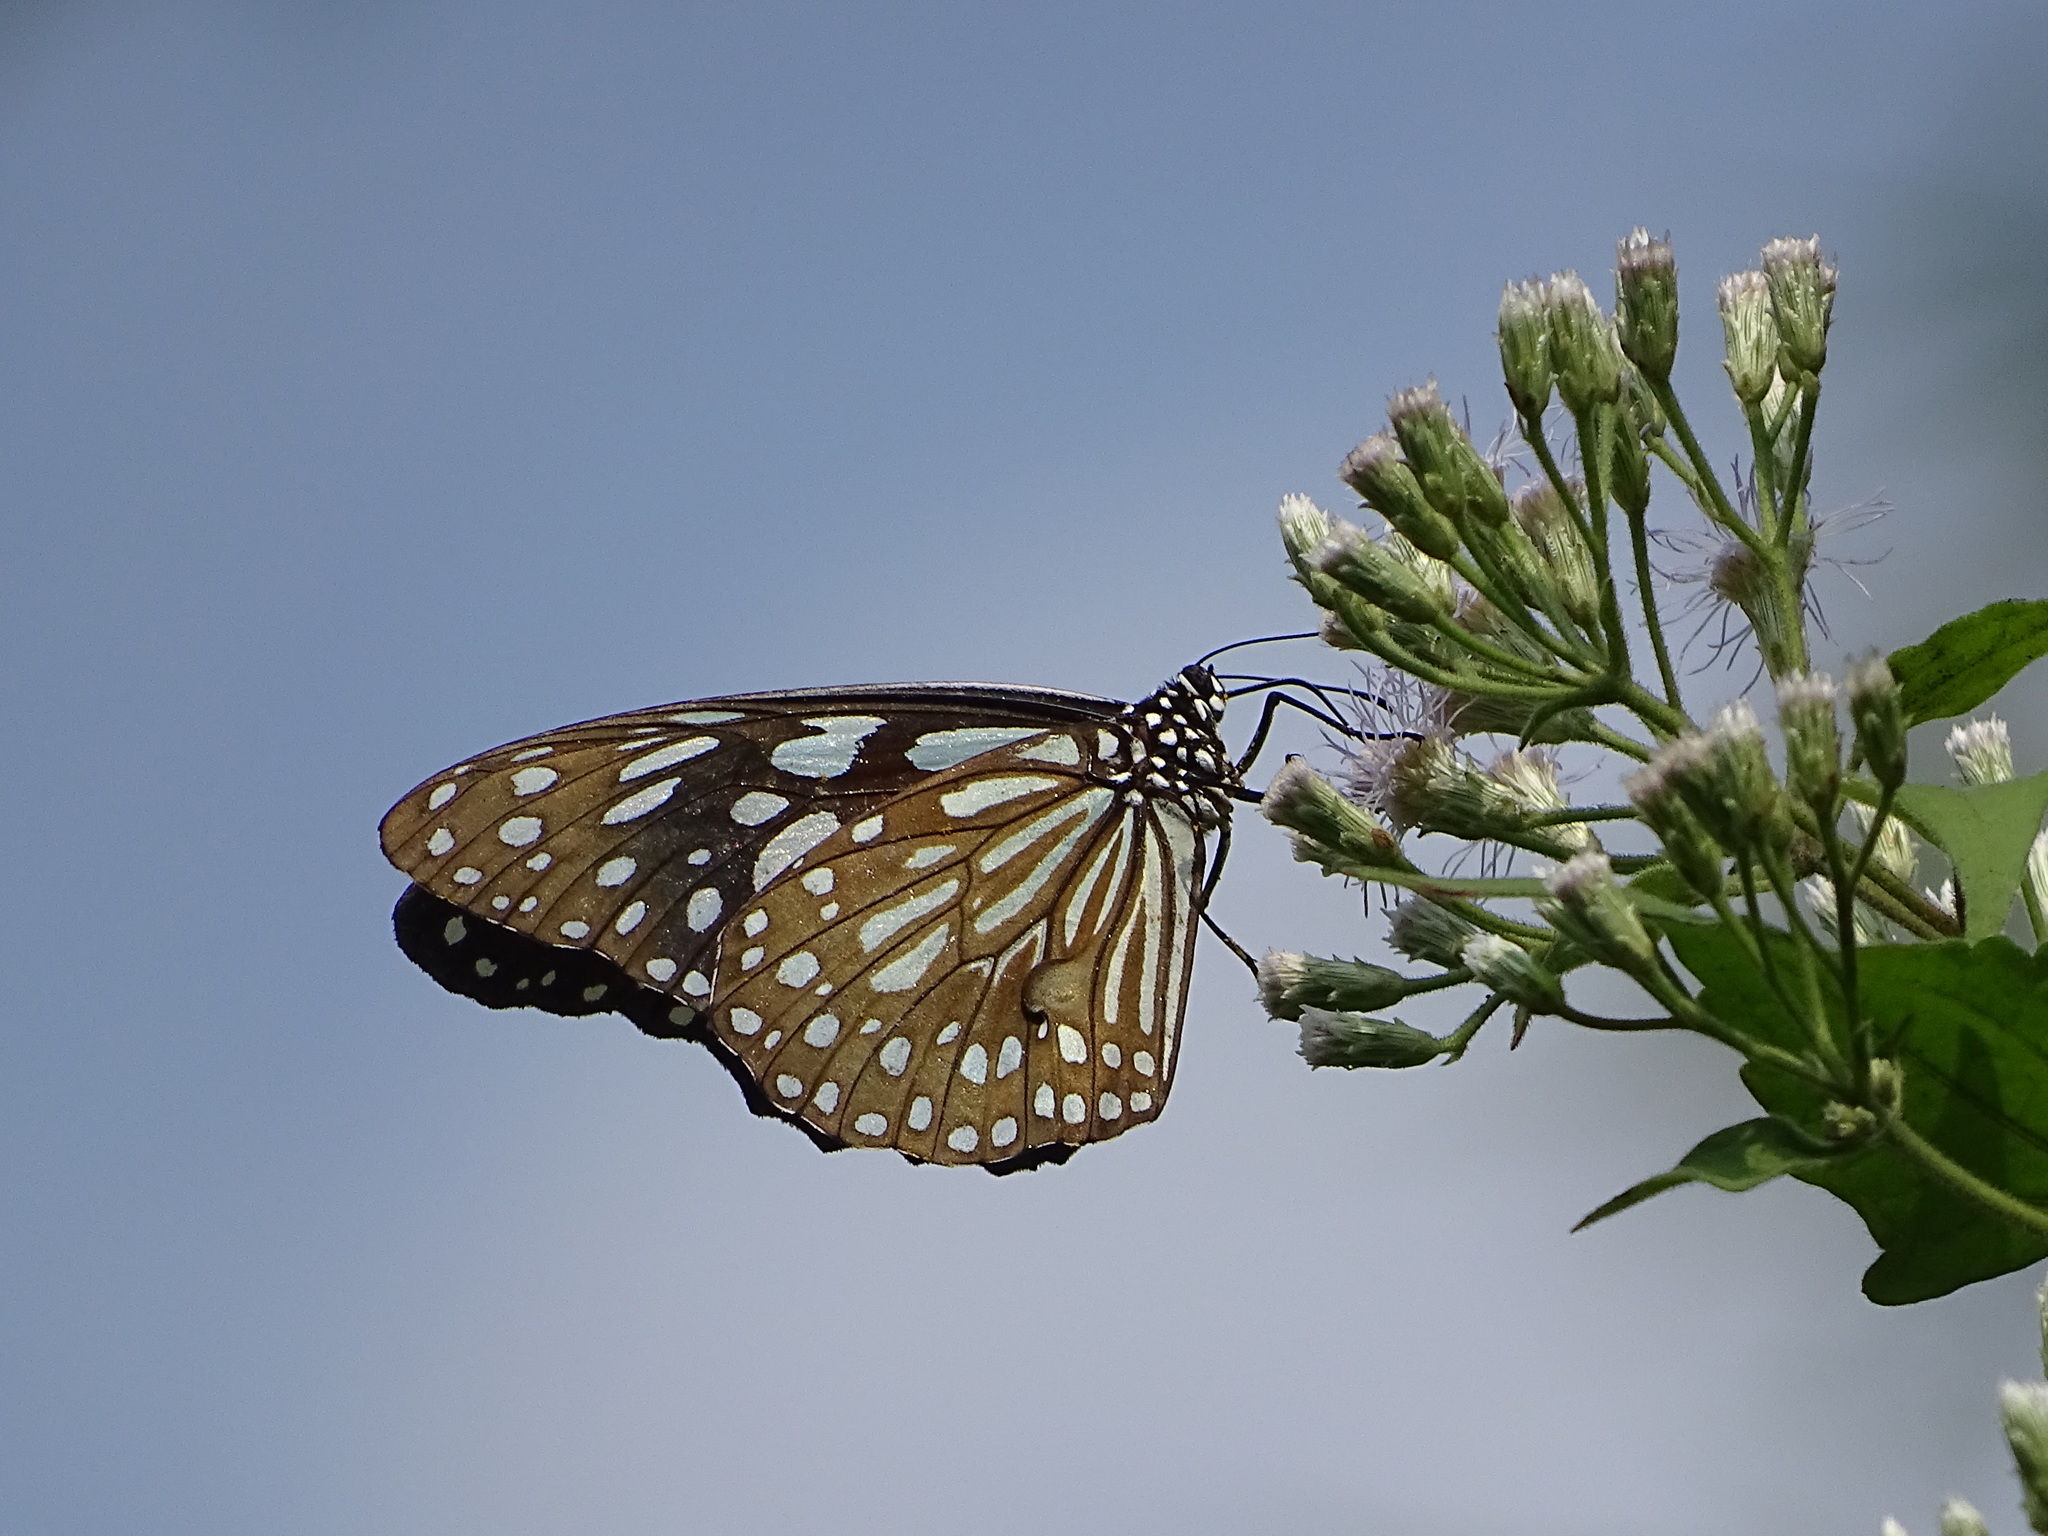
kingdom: Animalia
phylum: Arthropoda
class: Insecta
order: Lepidoptera
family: Nymphalidae
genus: Tirumala
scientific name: Tirumala limniace
